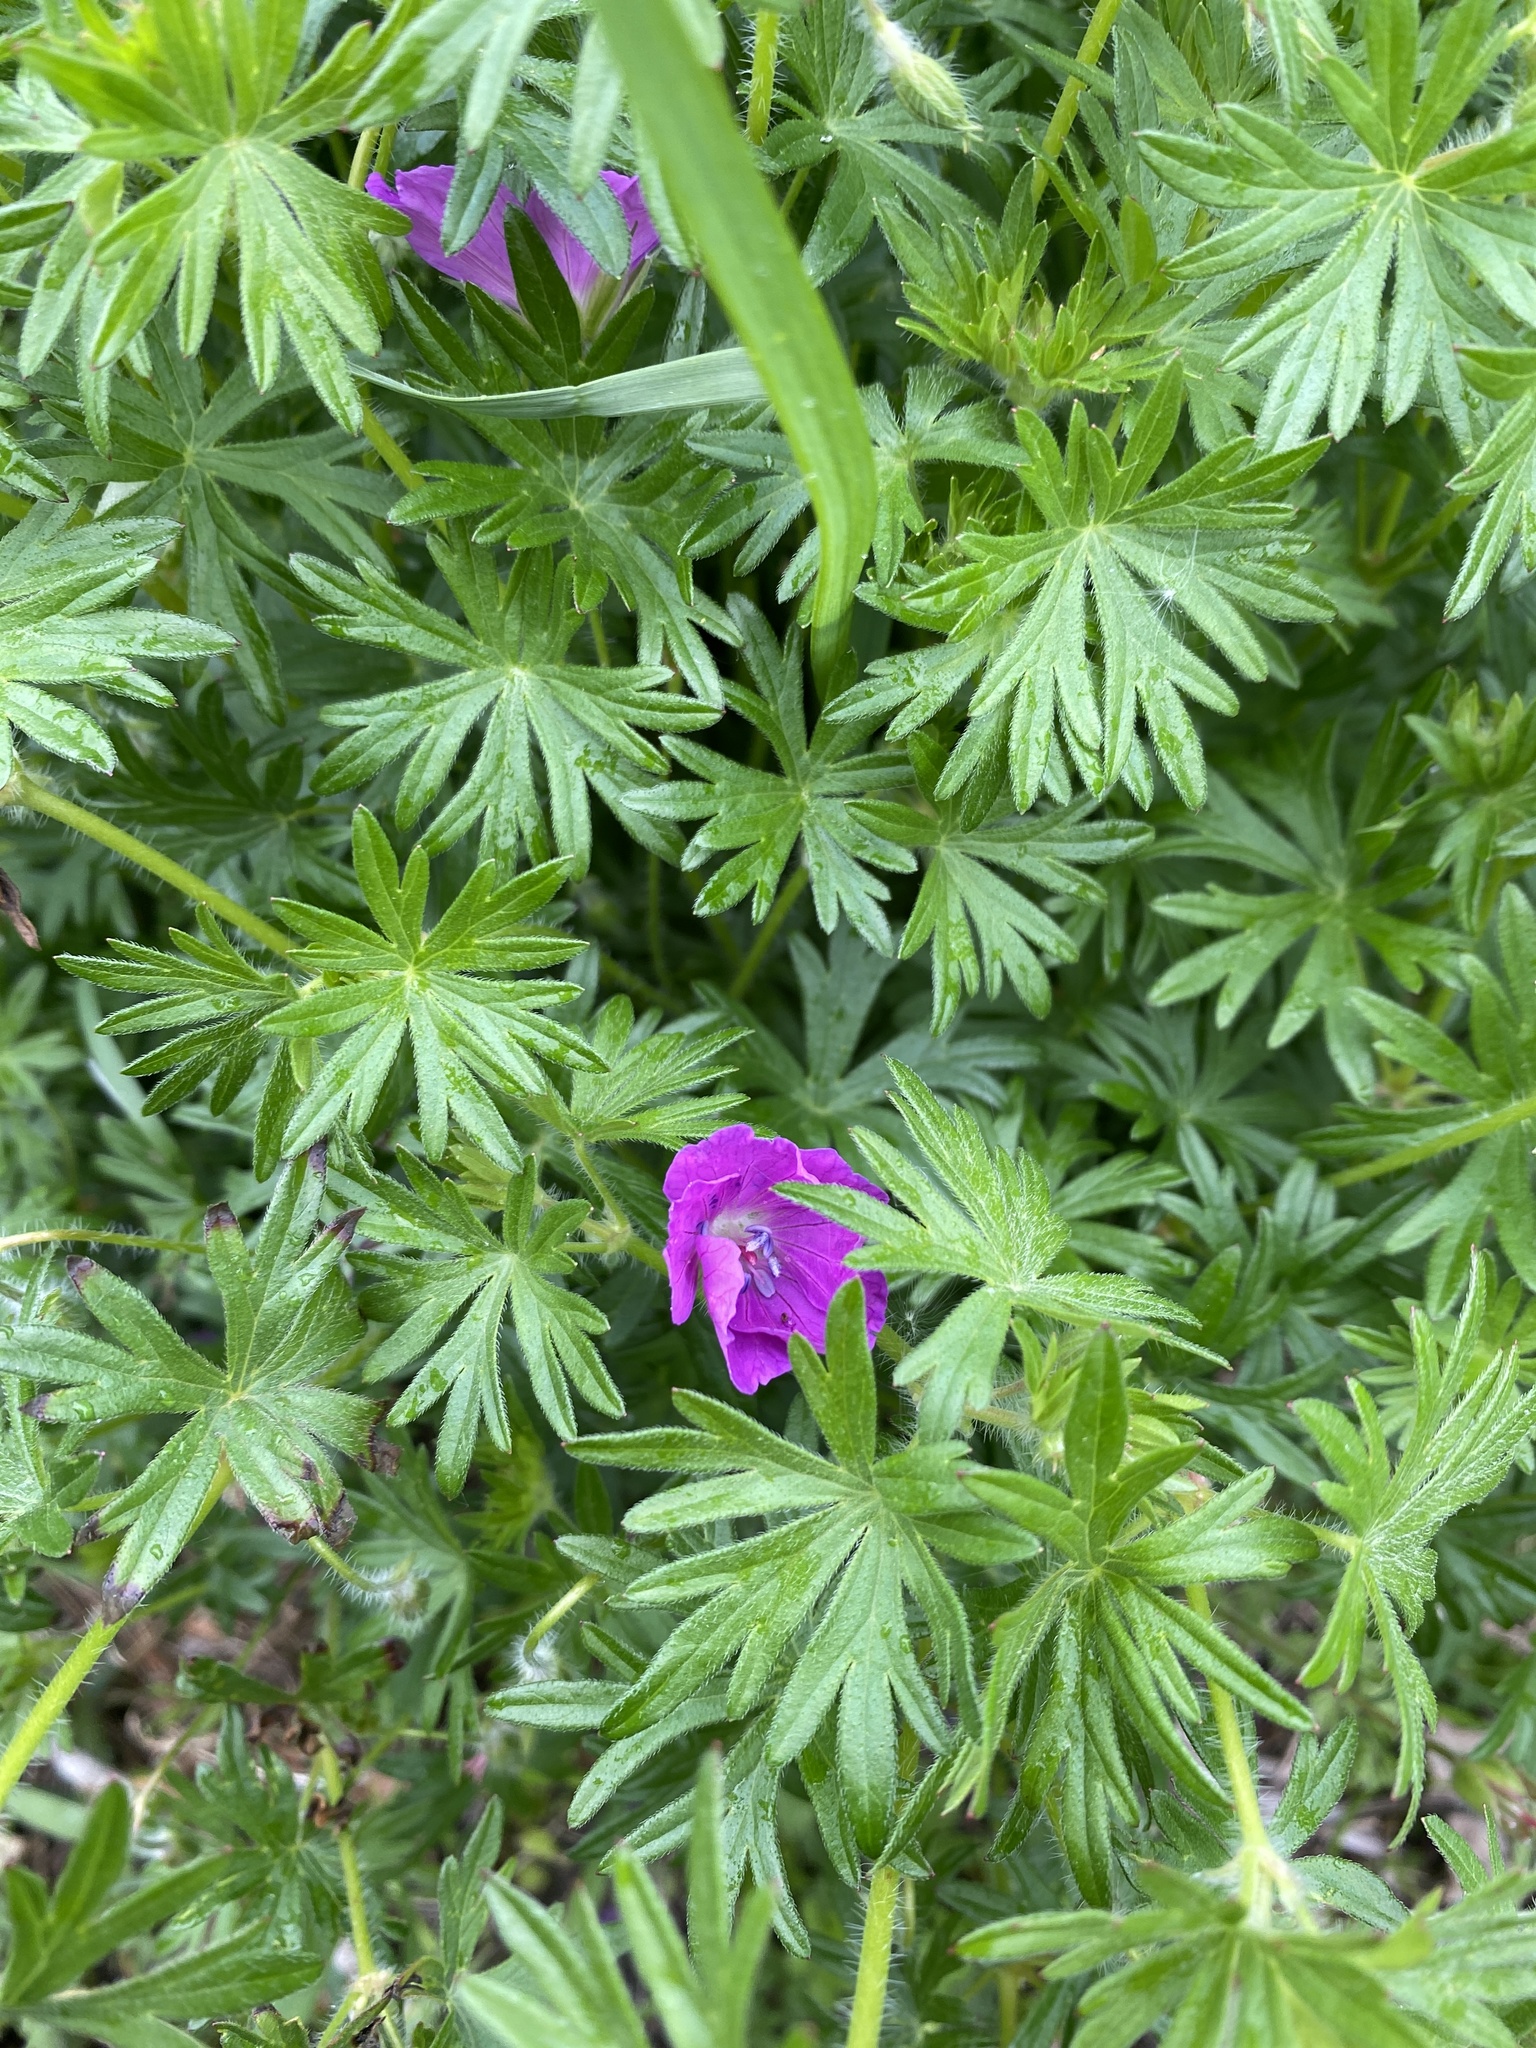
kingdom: Plantae
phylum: Tracheophyta
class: Magnoliopsida
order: Geraniales
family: Geraniaceae
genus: Geranium
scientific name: Geranium sanguineum
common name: Bloody crane's-bill
